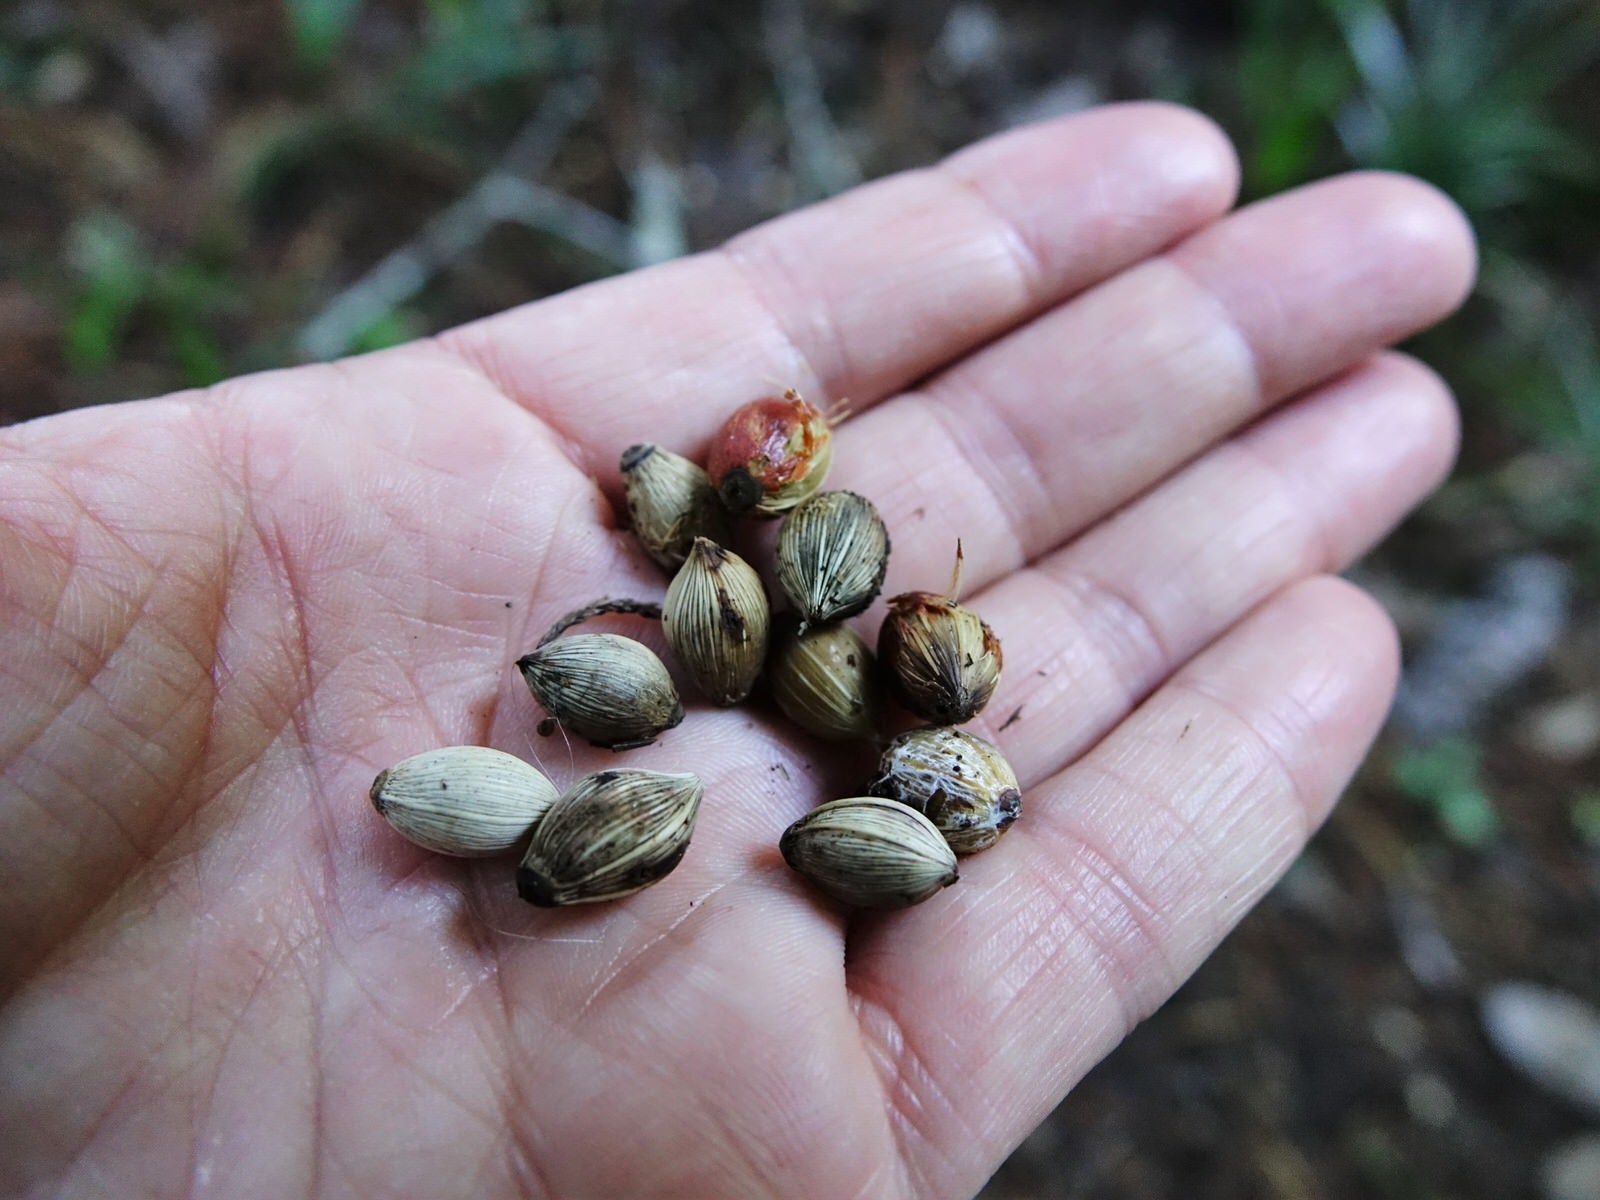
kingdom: Plantae
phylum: Tracheophyta
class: Liliopsida
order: Arecales
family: Arecaceae
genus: Rhopalostylis
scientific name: Rhopalostylis sapida
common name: Feather-duster palm
